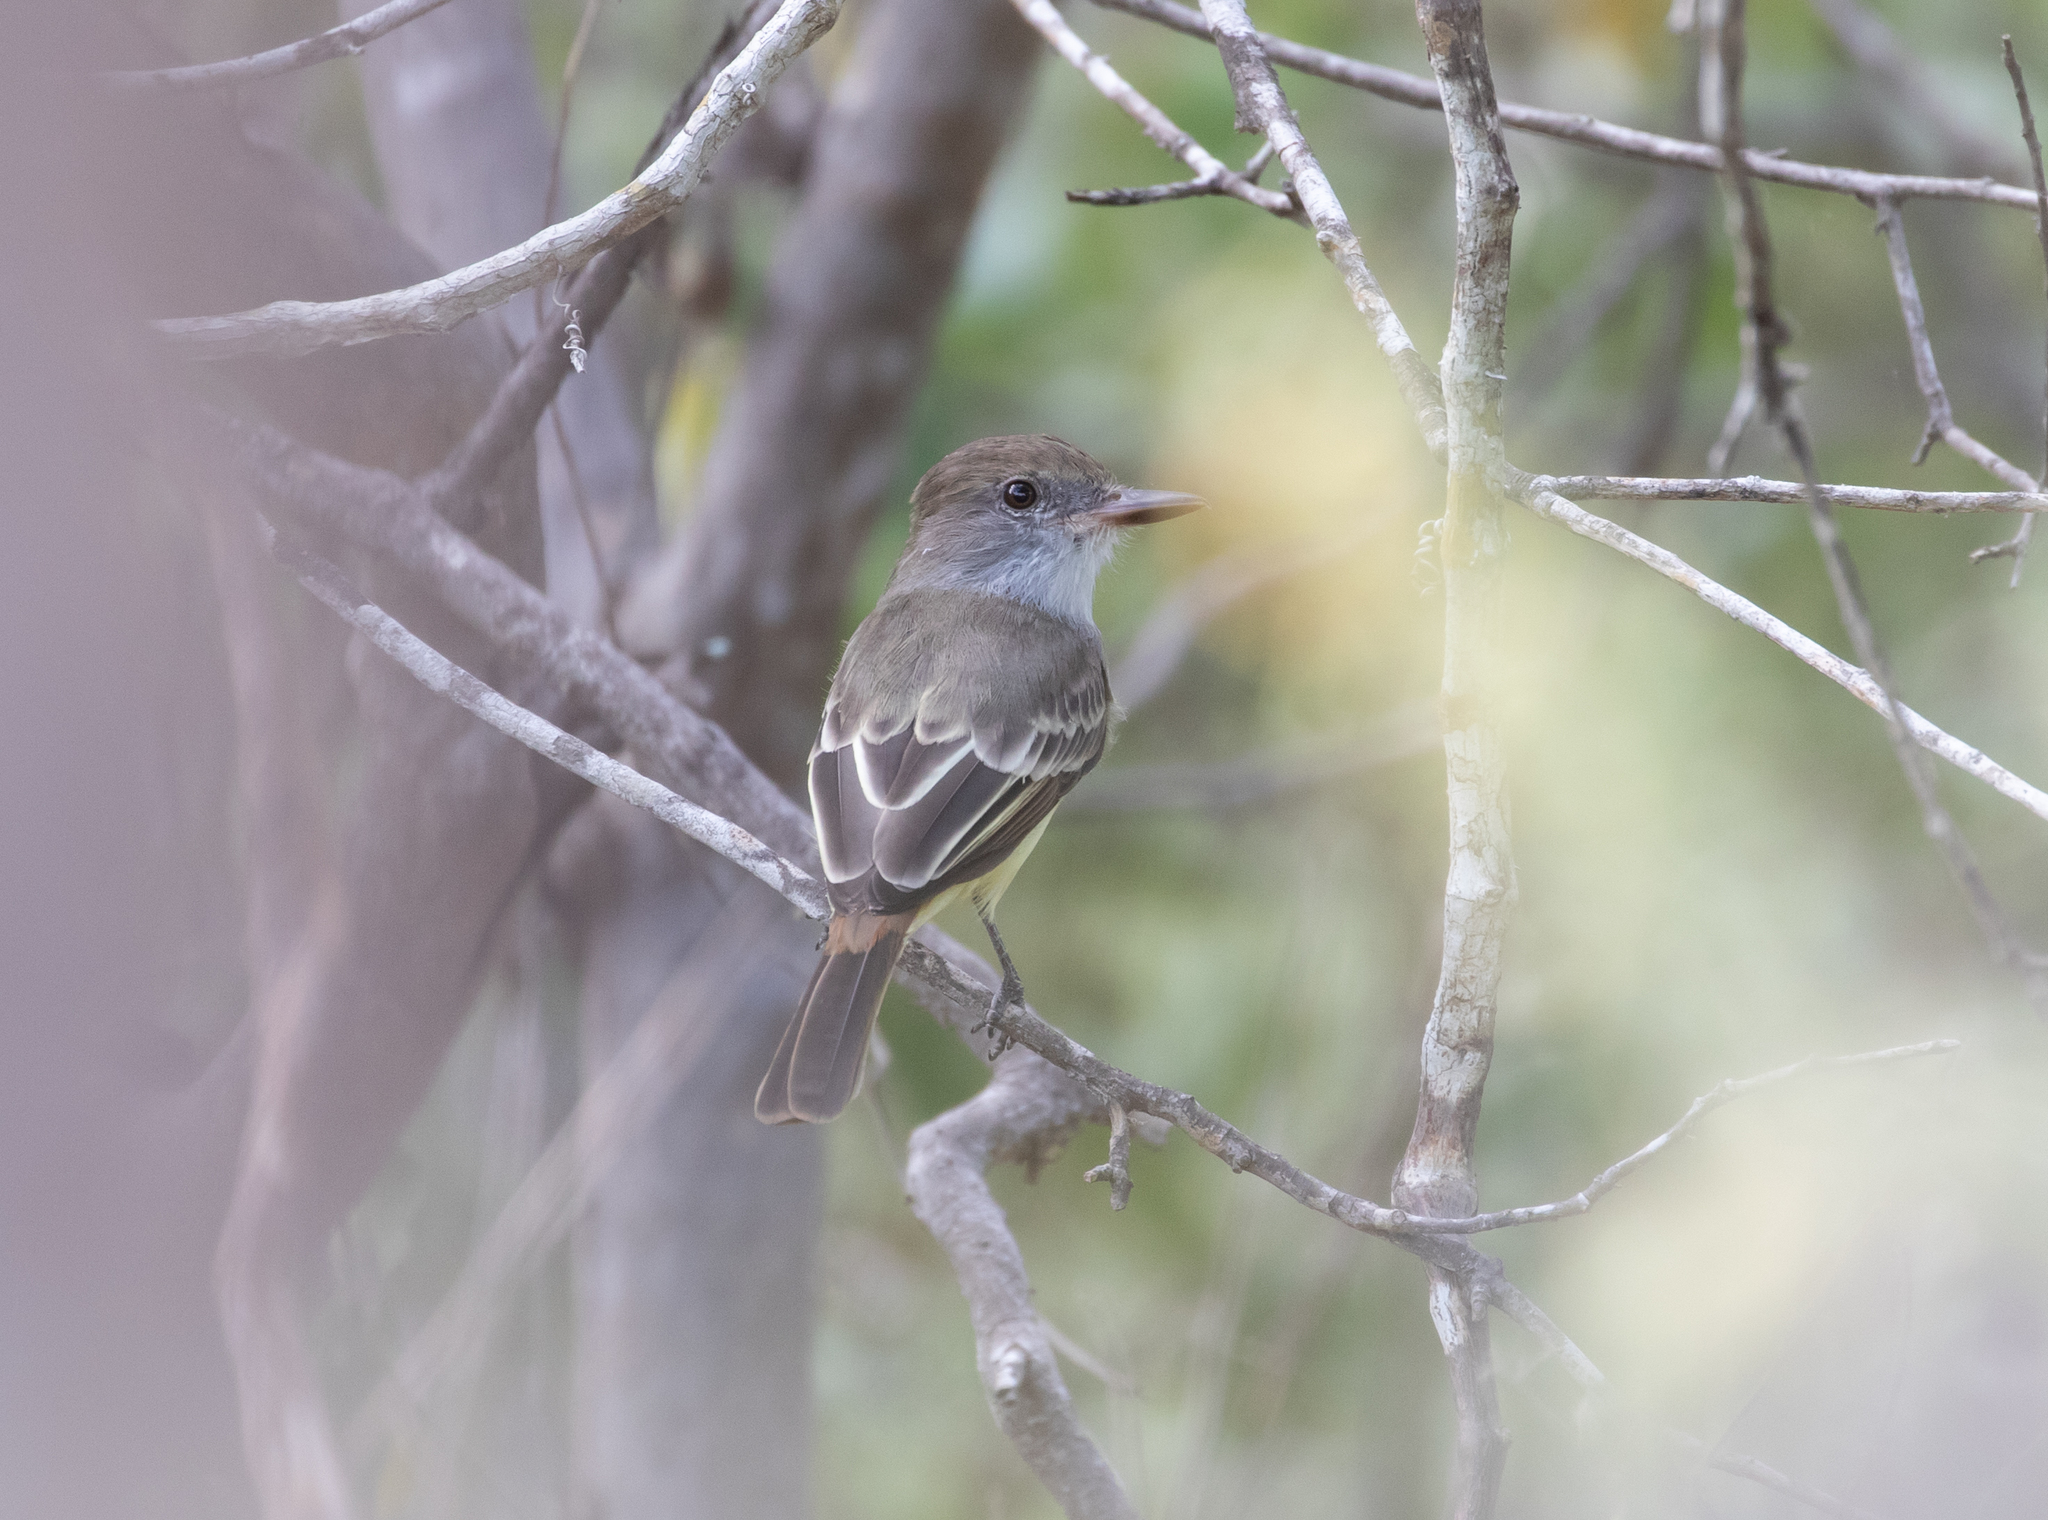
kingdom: Animalia
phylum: Chordata
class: Aves
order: Passeriformes
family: Tyrannidae
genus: Myiarchus
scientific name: Myiarchus tyrannulus
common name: Brown-crested flycatcher
